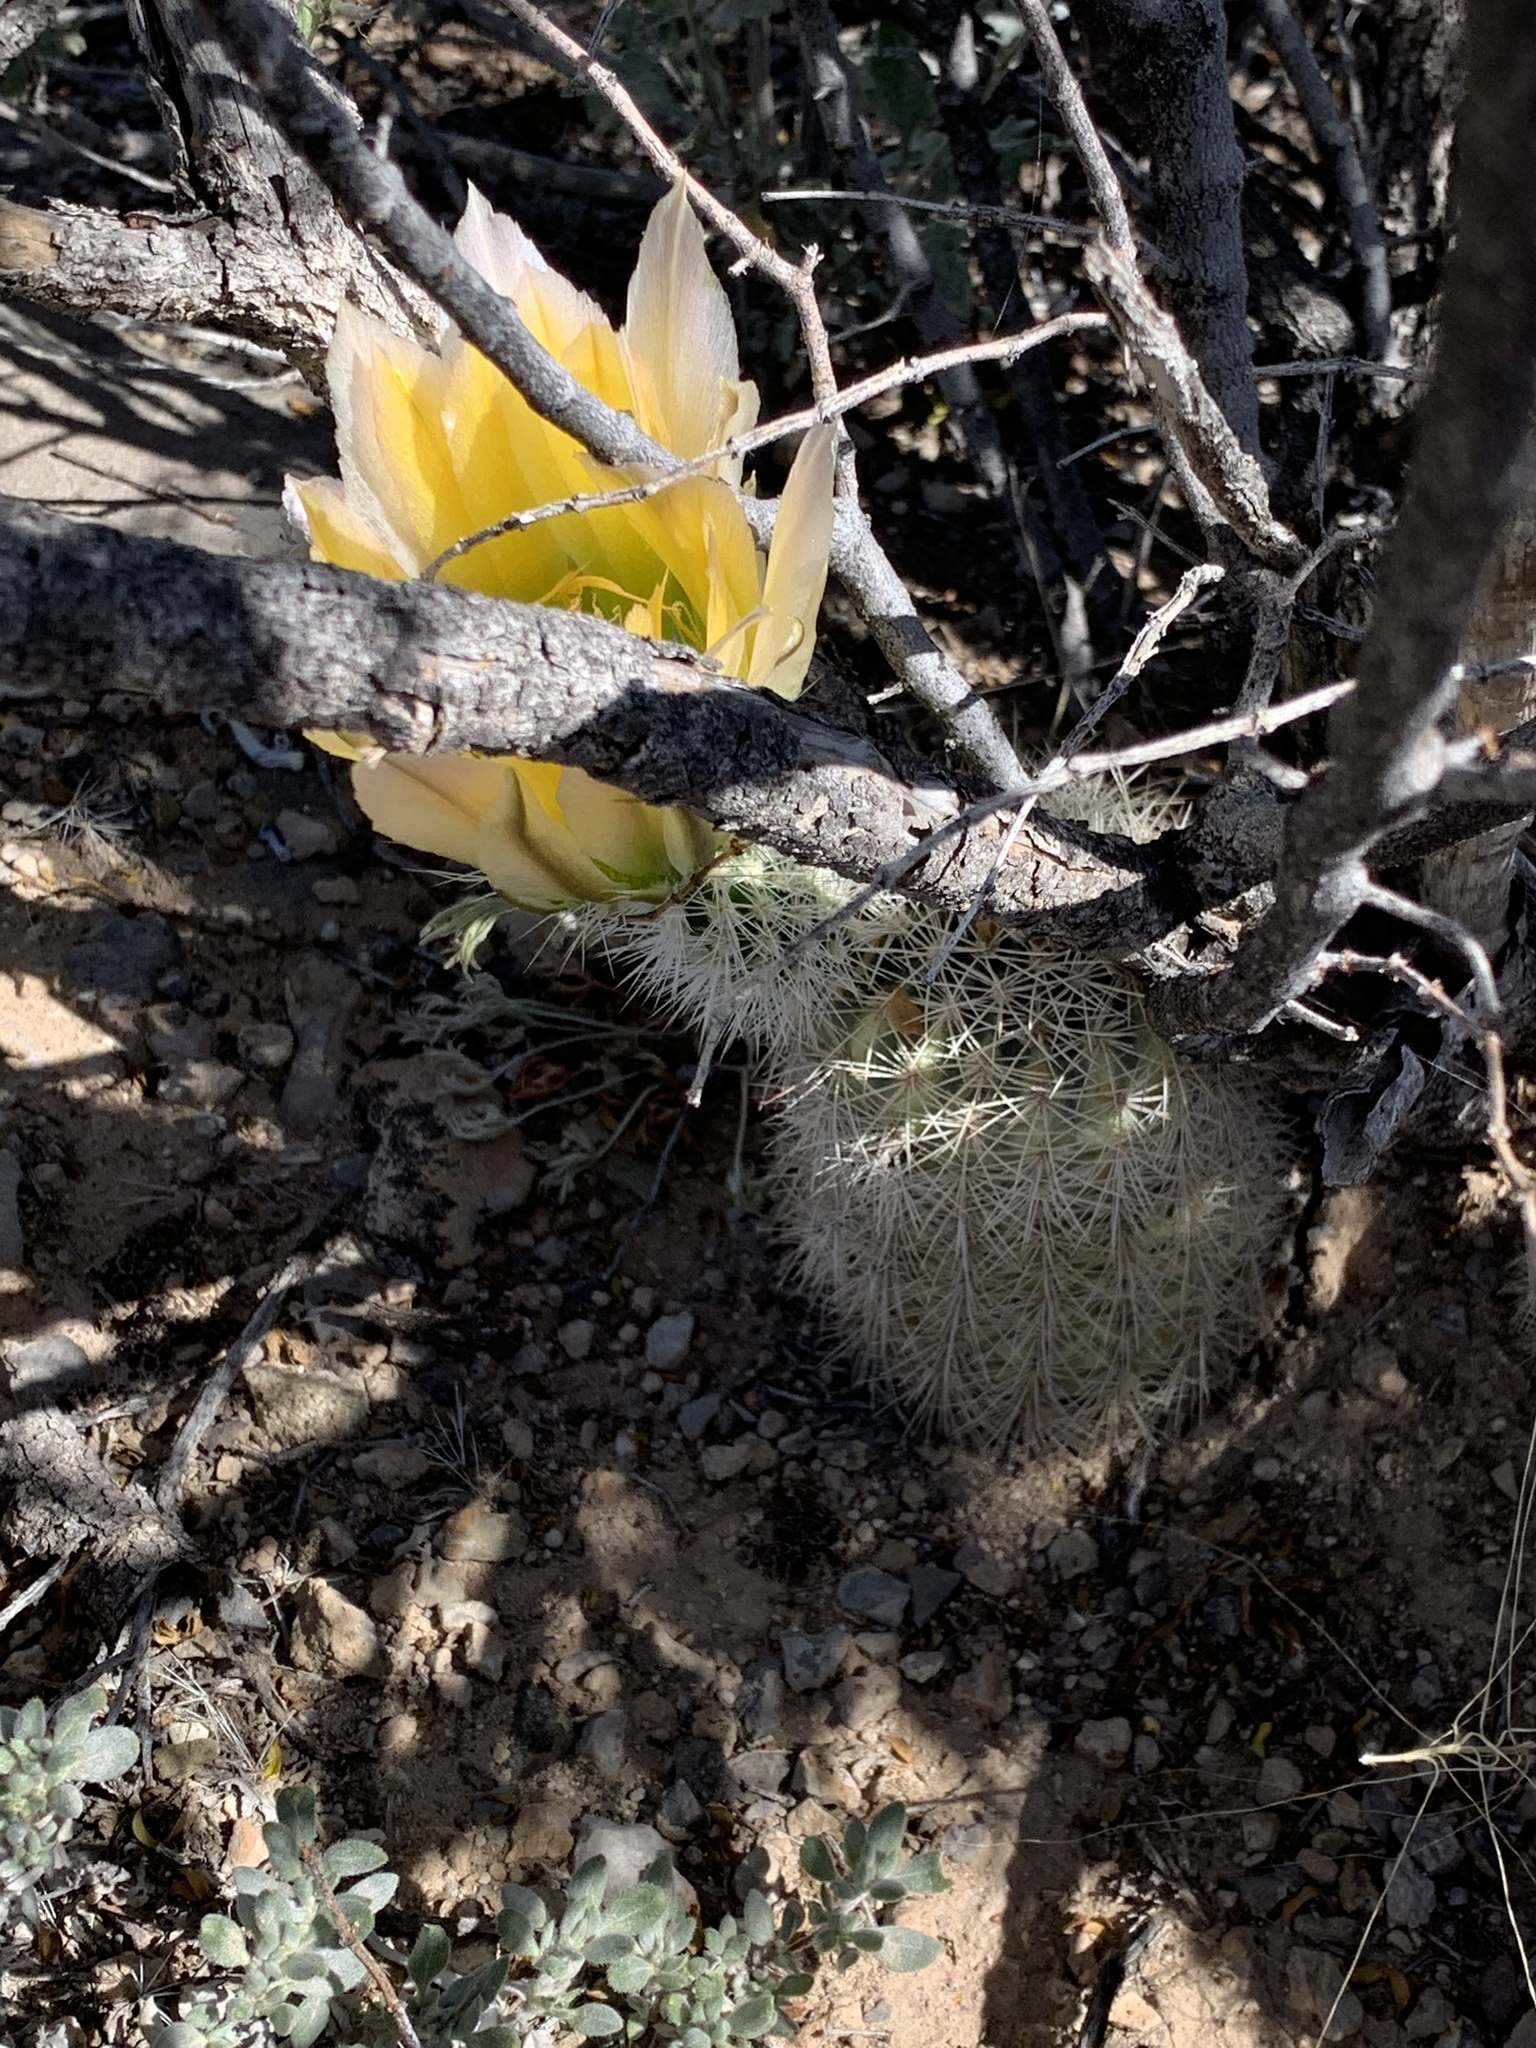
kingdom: Plantae
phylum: Tracheophyta
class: Magnoliopsida
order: Caryophyllales
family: Cactaceae
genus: Echinocereus
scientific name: Echinocereus dasyacanthus
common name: Spiny hedgehog cactus
